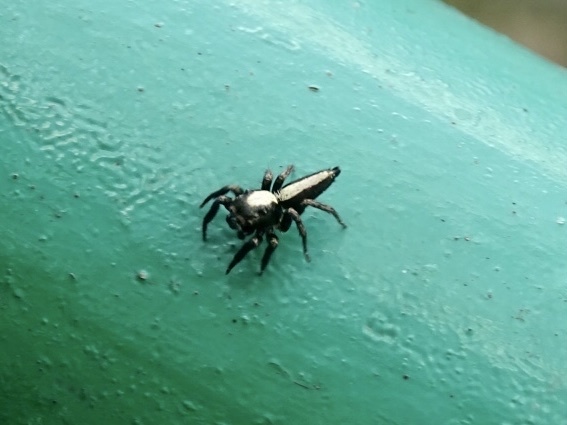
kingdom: Animalia
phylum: Arthropoda
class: Arachnida
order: Araneae
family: Salticidae
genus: Thyene
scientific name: Thyene orientalis
